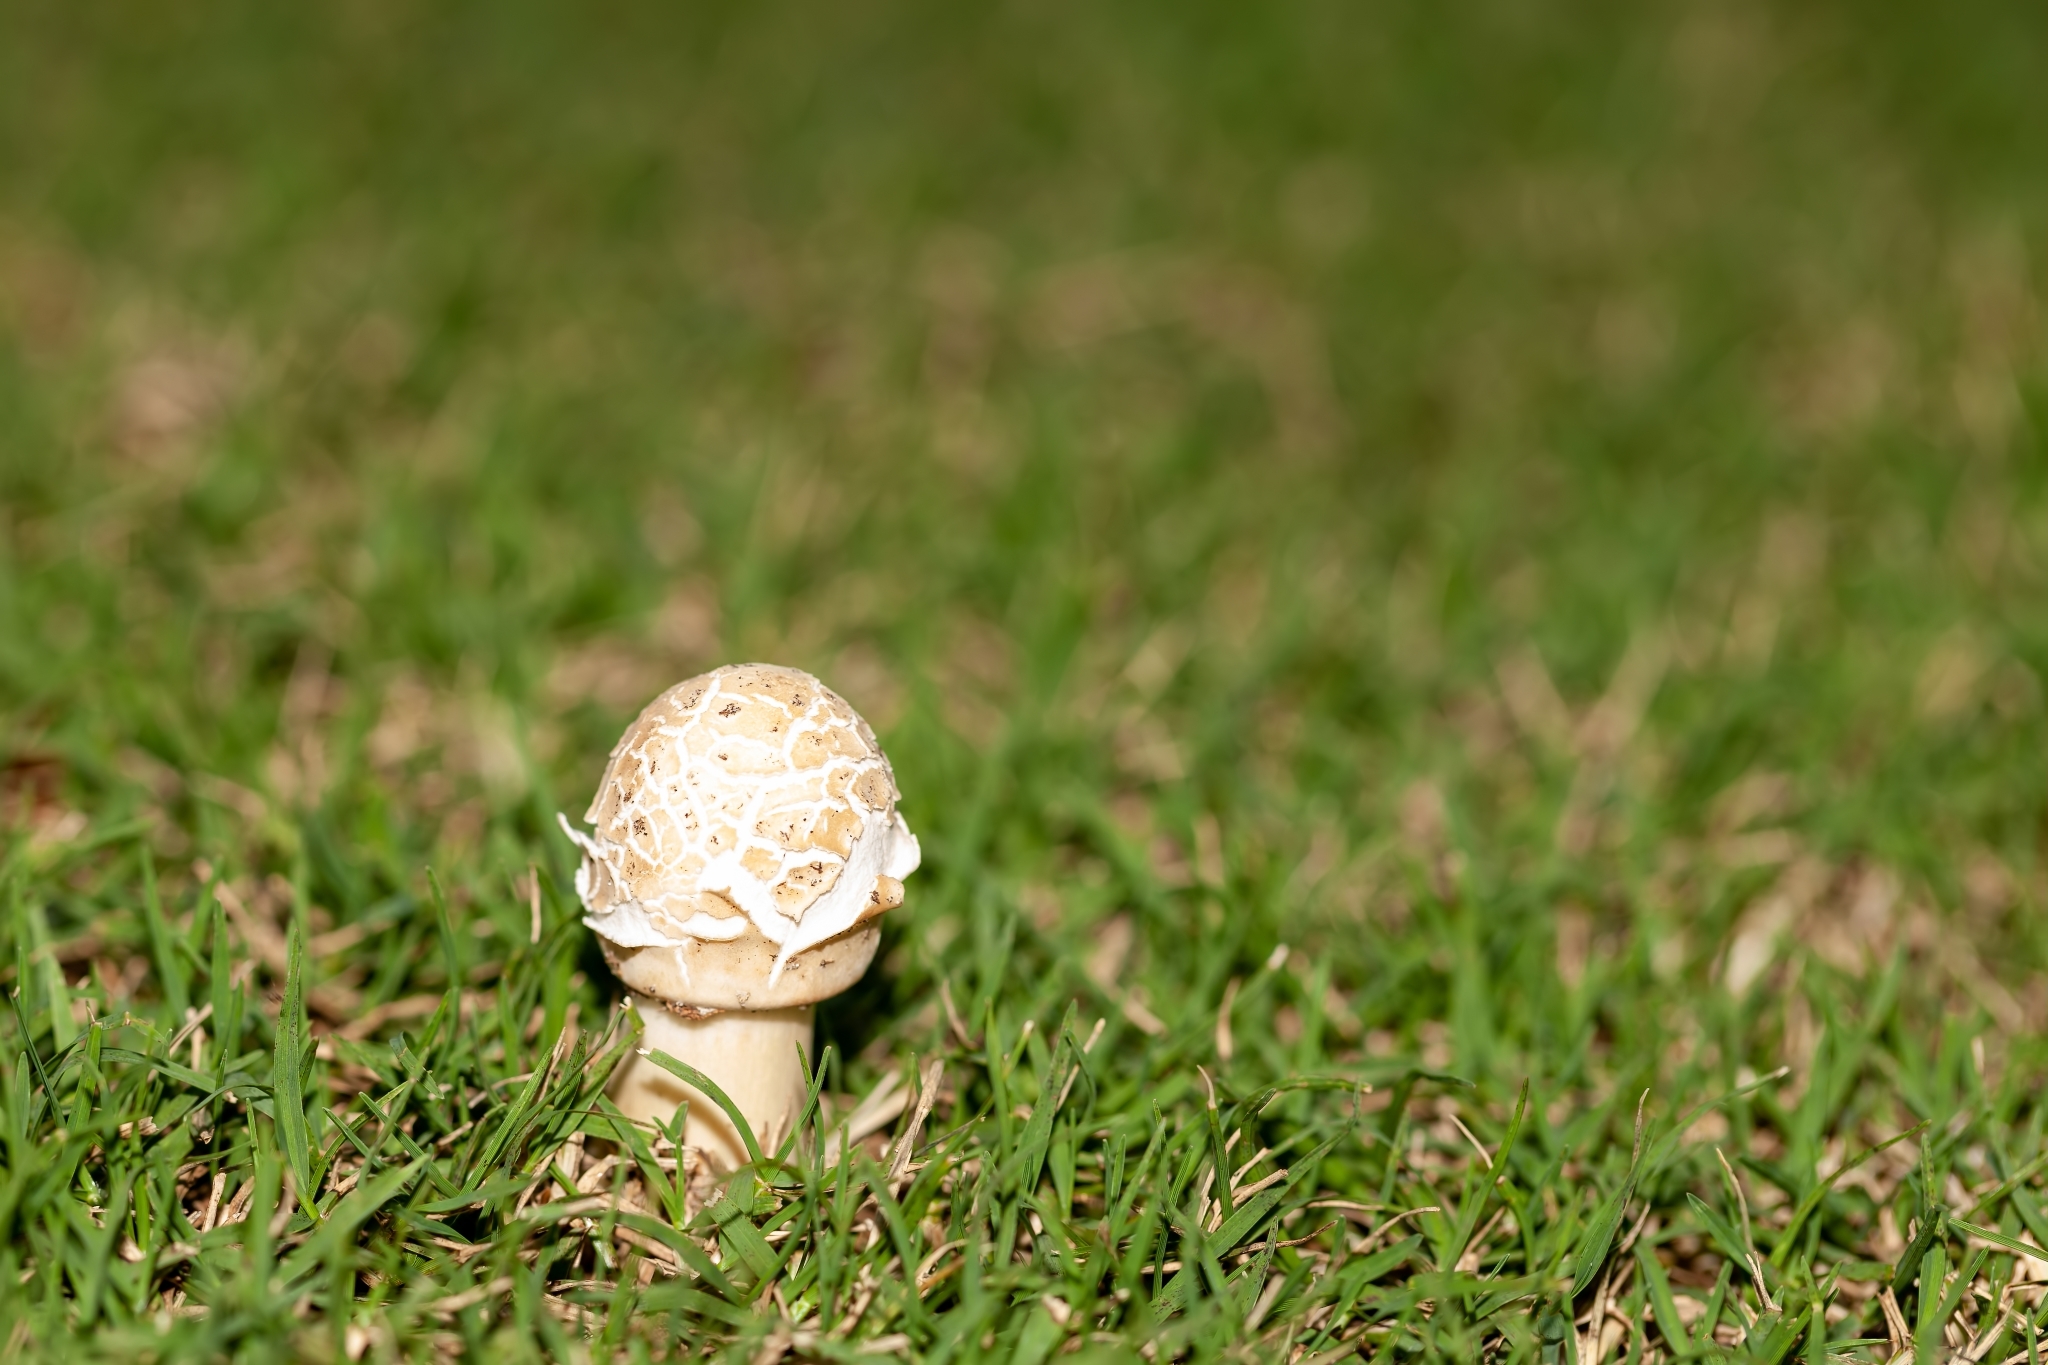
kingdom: Fungi
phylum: Basidiomycota
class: Agaricomycetes
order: Agaricales
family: Agaricaceae
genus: Chlorophyllum
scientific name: Chlorophyllum molybdites
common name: False parasol
